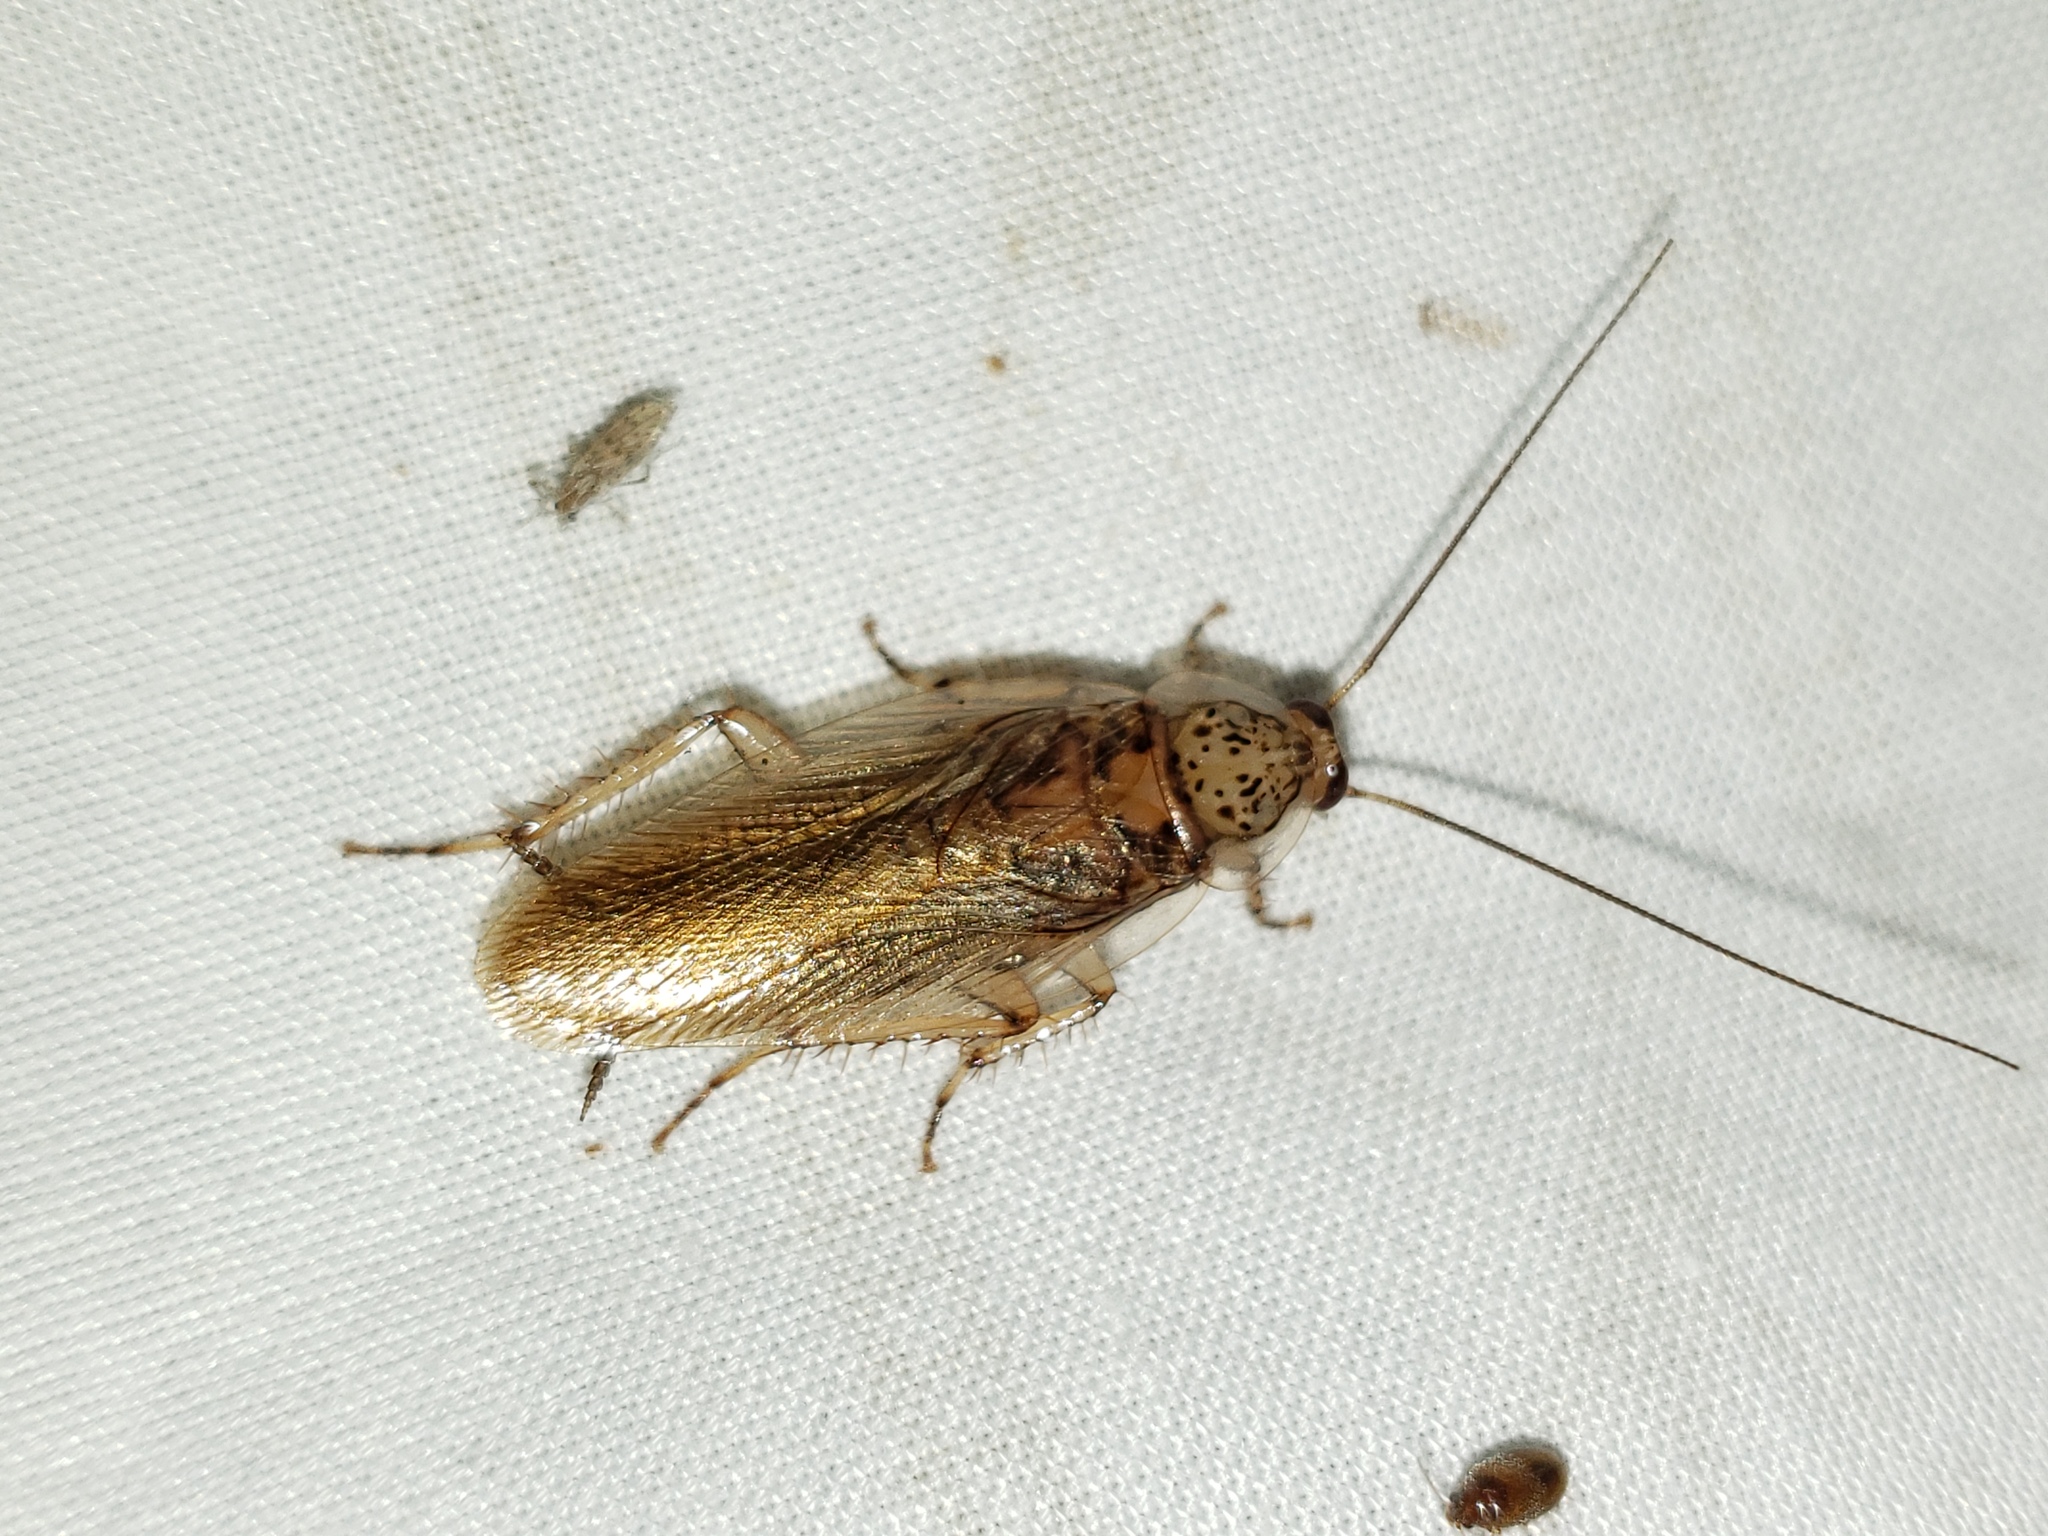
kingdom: Animalia
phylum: Arthropoda
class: Insecta
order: Blattodea
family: Ectobiidae
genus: Latiblattella
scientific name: Latiblattella rehni
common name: Rehn's cockroach
